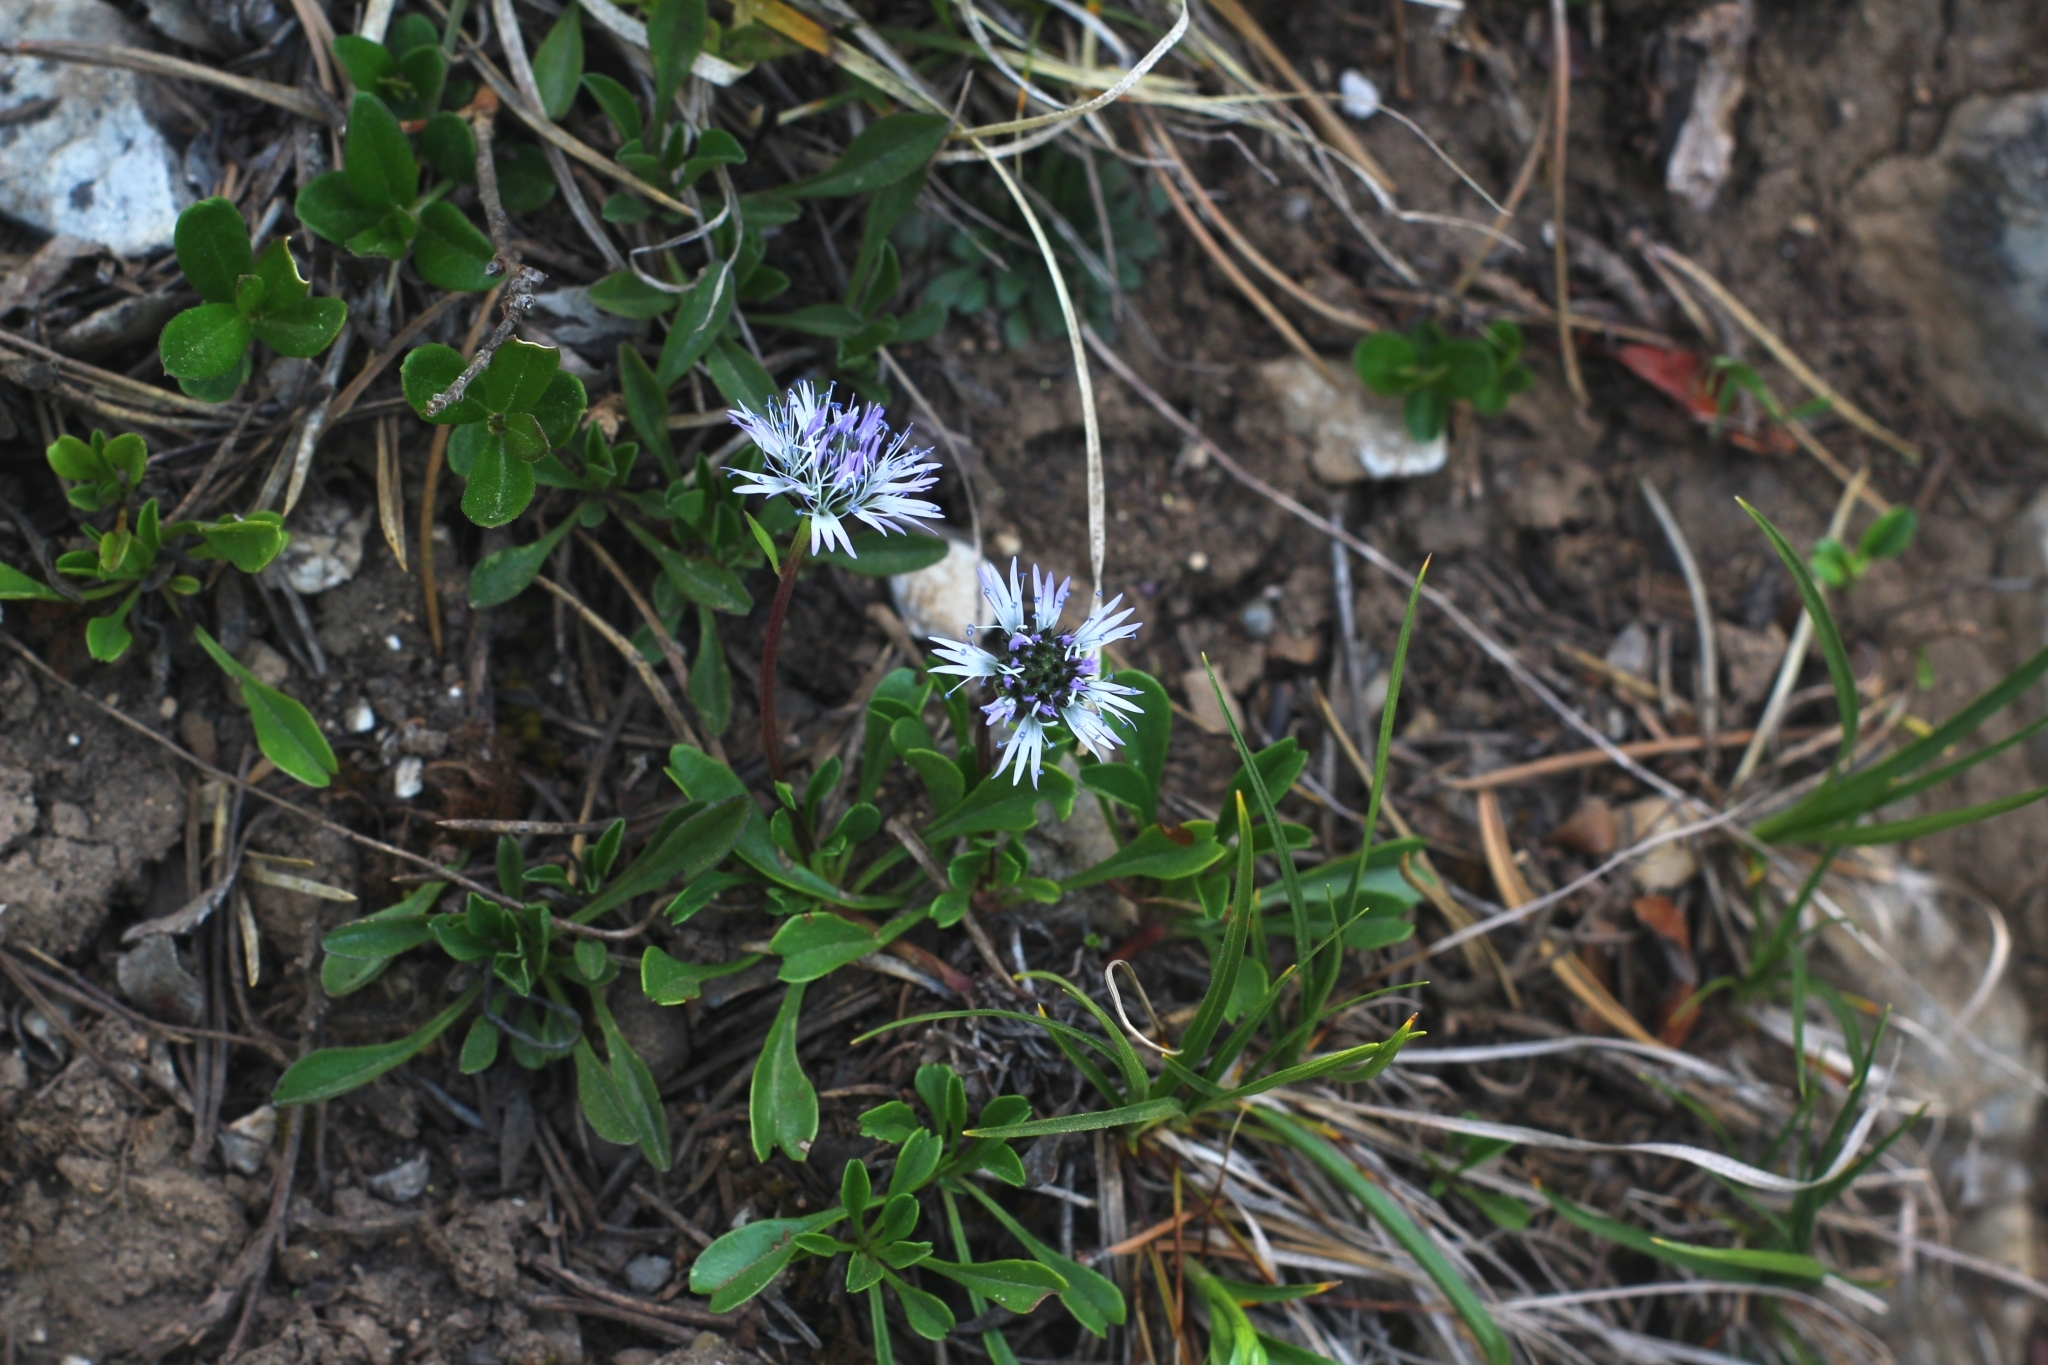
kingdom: Plantae
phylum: Tracheophyta
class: Magnoliopsida
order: Lamiales
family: Plantaginaceae
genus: Globularia
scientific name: Globularia cordifolia
